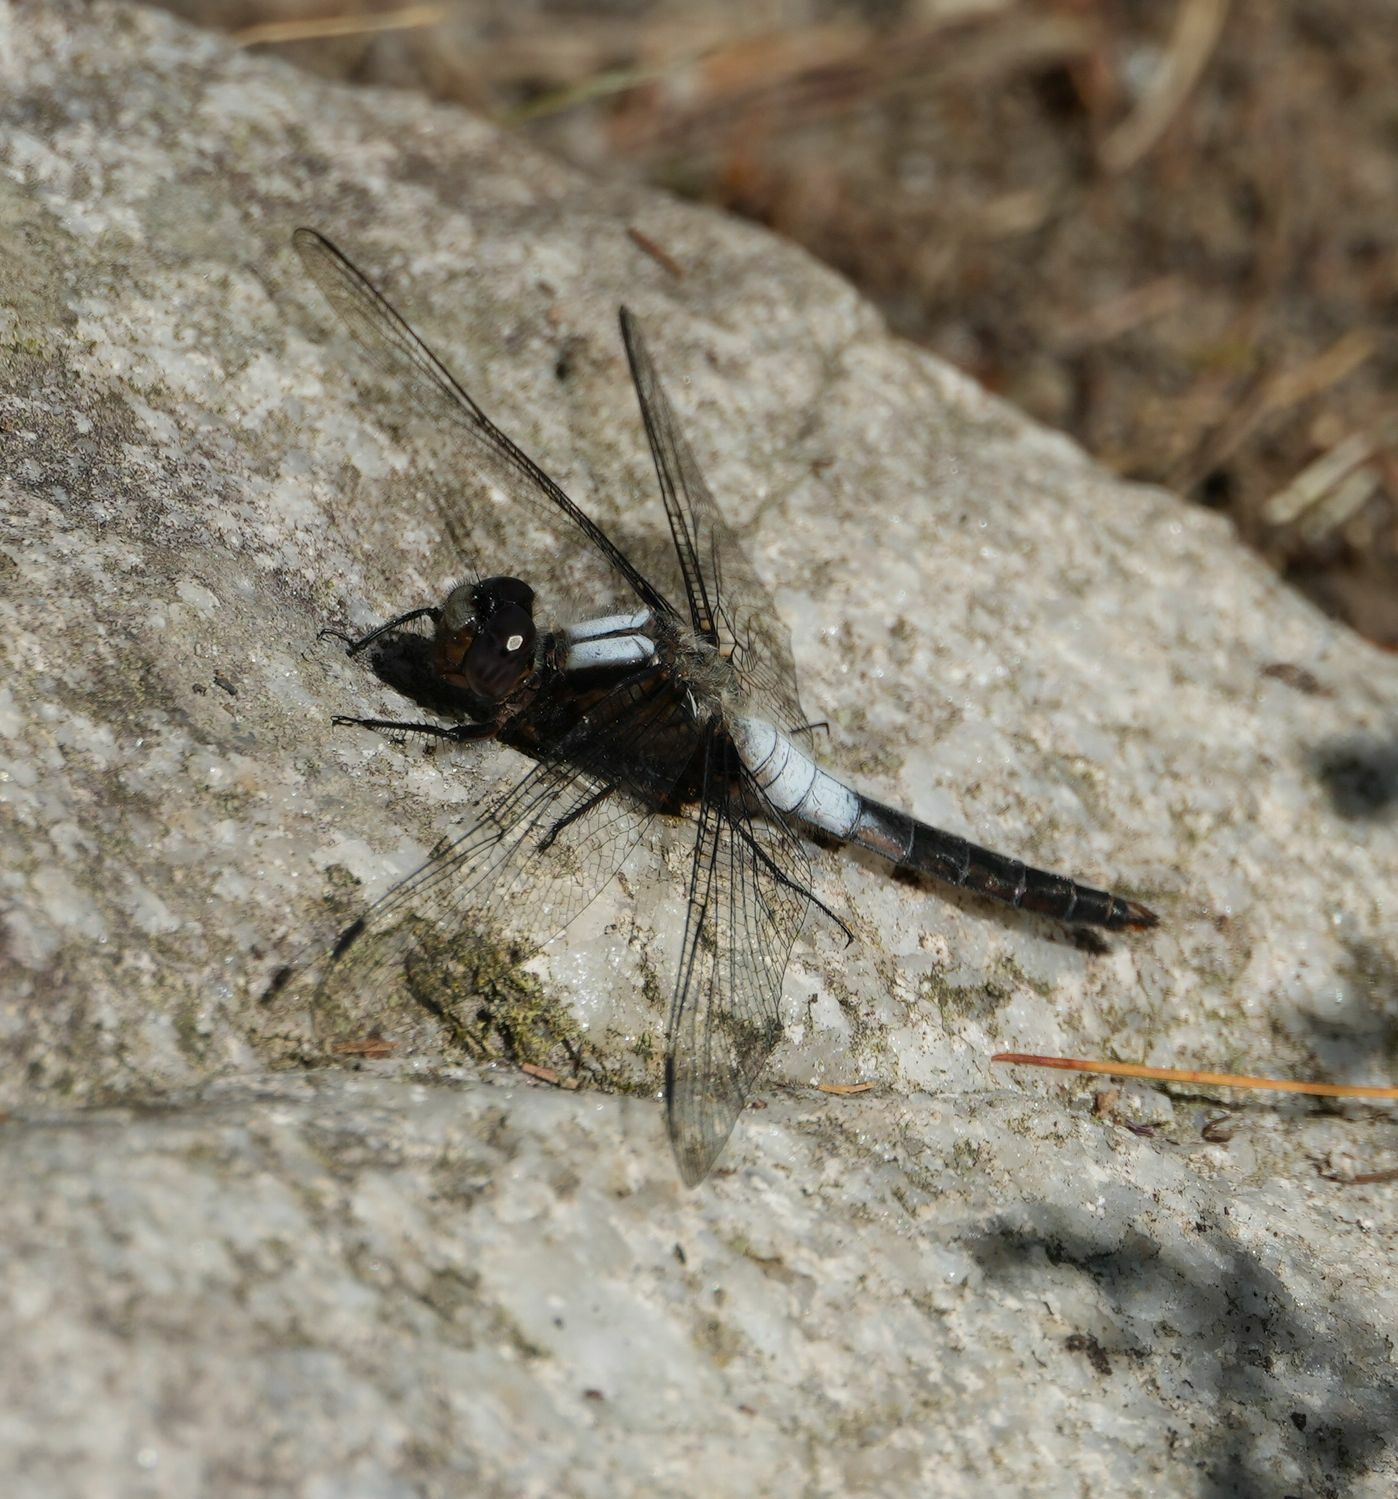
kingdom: Animalia
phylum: Arthropoda
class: Insecta
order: Odonata
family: Libellulidae
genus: Ladona
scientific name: Ladona julia
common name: Chalk-fronted corporal
